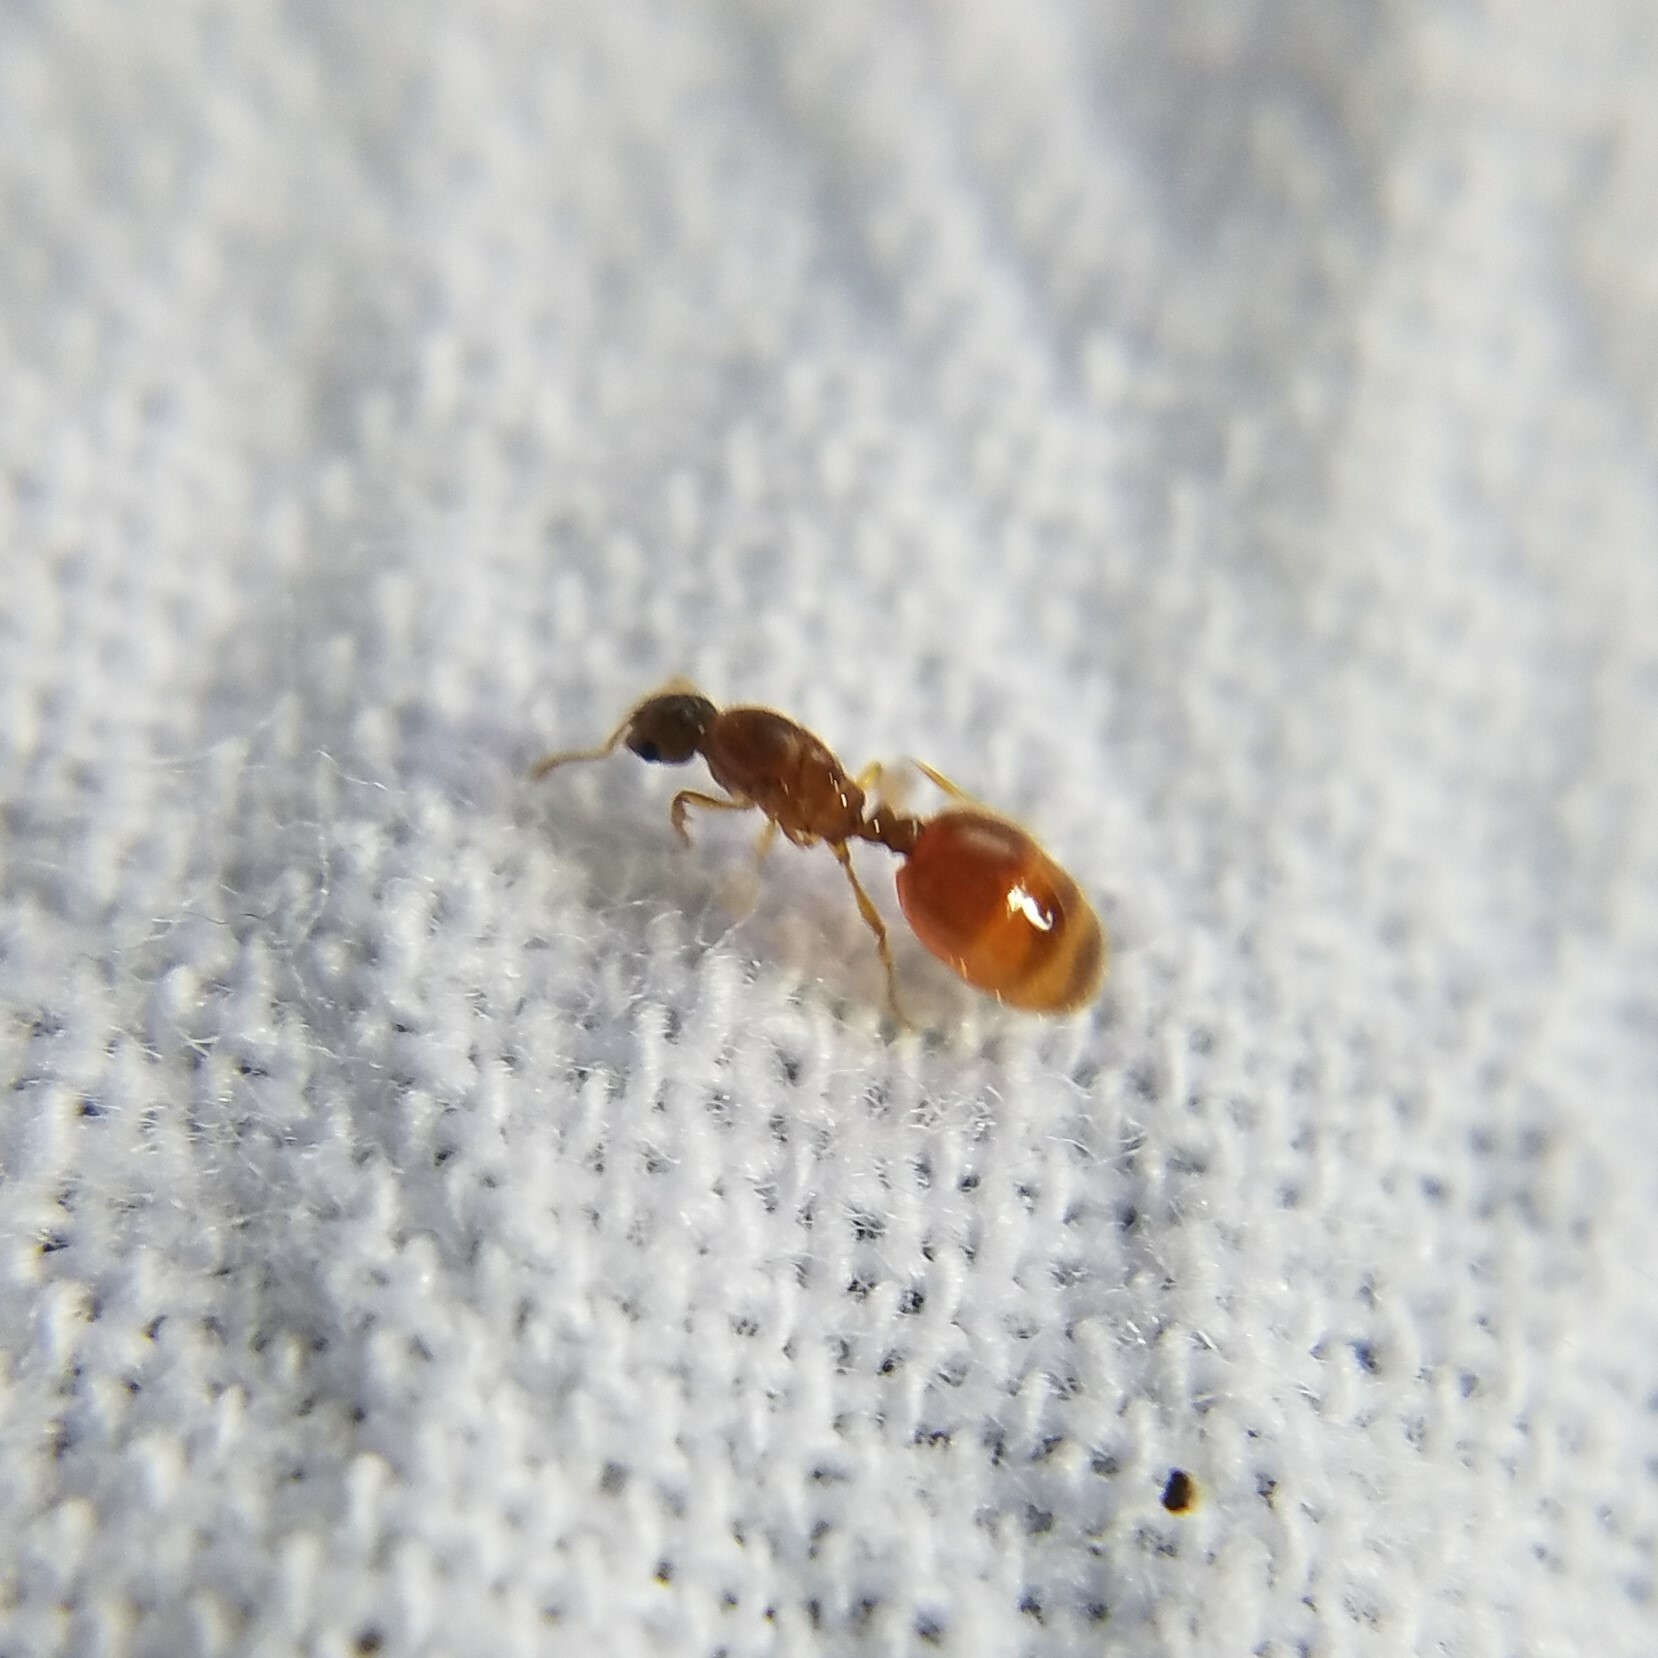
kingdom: Animalia
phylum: Arthropoda
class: Insecta
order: Hymenoptera
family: Formicidae
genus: Solenopsis
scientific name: Solenopsis molesta
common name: Thief ant
